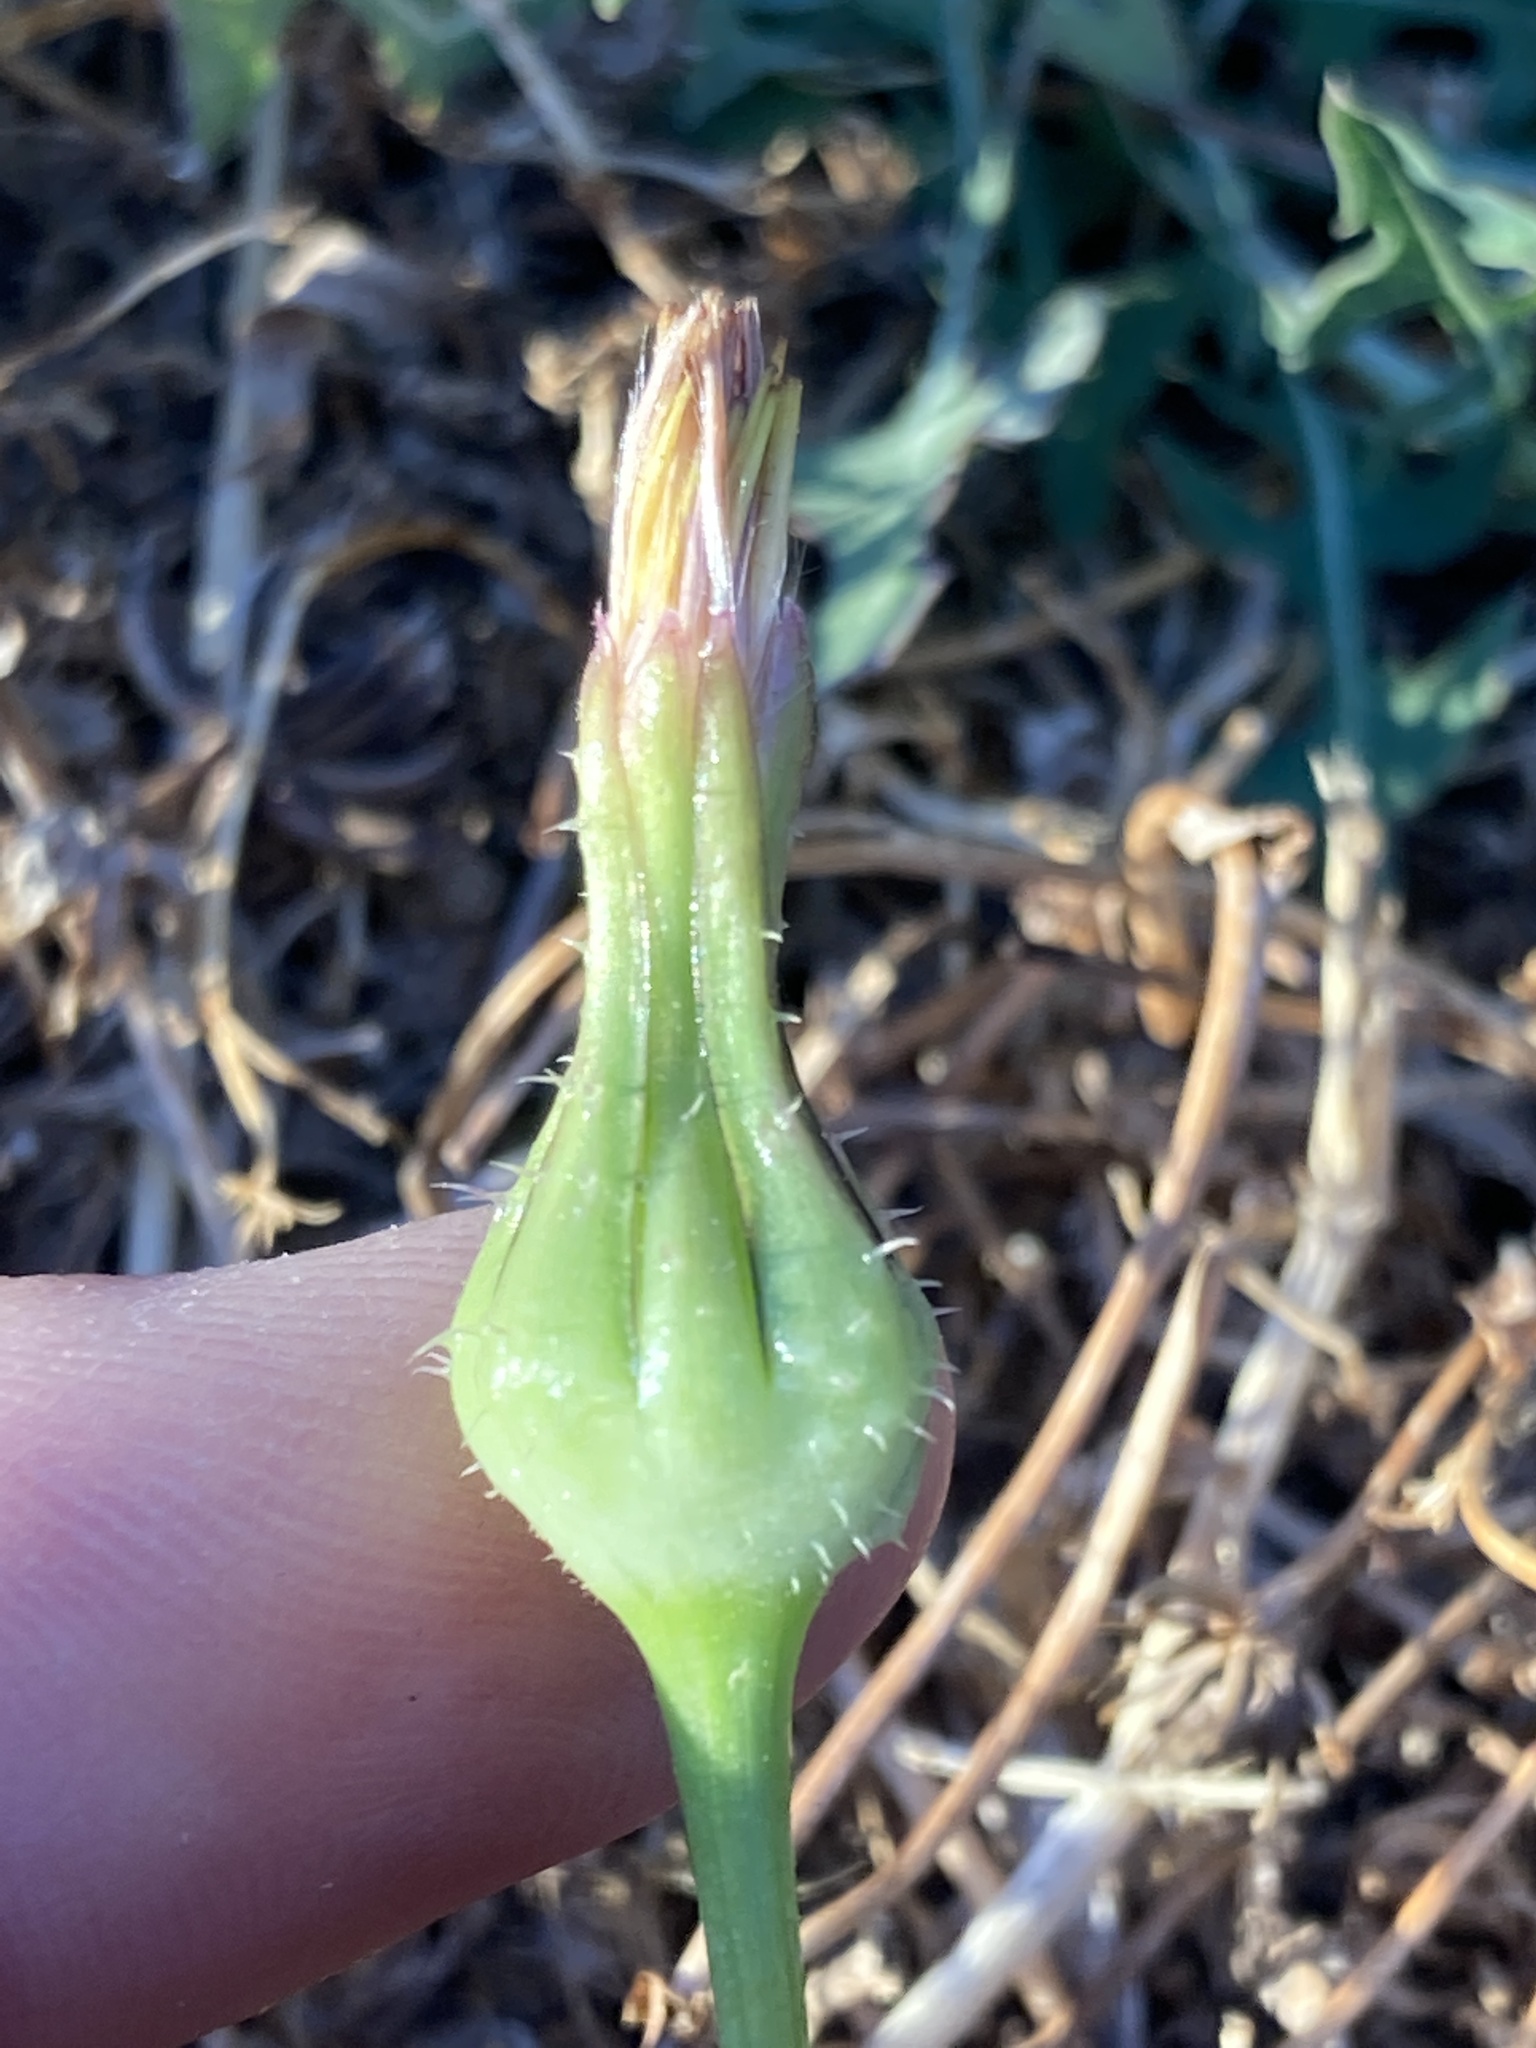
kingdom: Plantae
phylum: Tracheophyta
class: Magnoliopsida
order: Asterales
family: Asteraceae
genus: Urospermum
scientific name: Urospermum picroides
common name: False hawkbit
